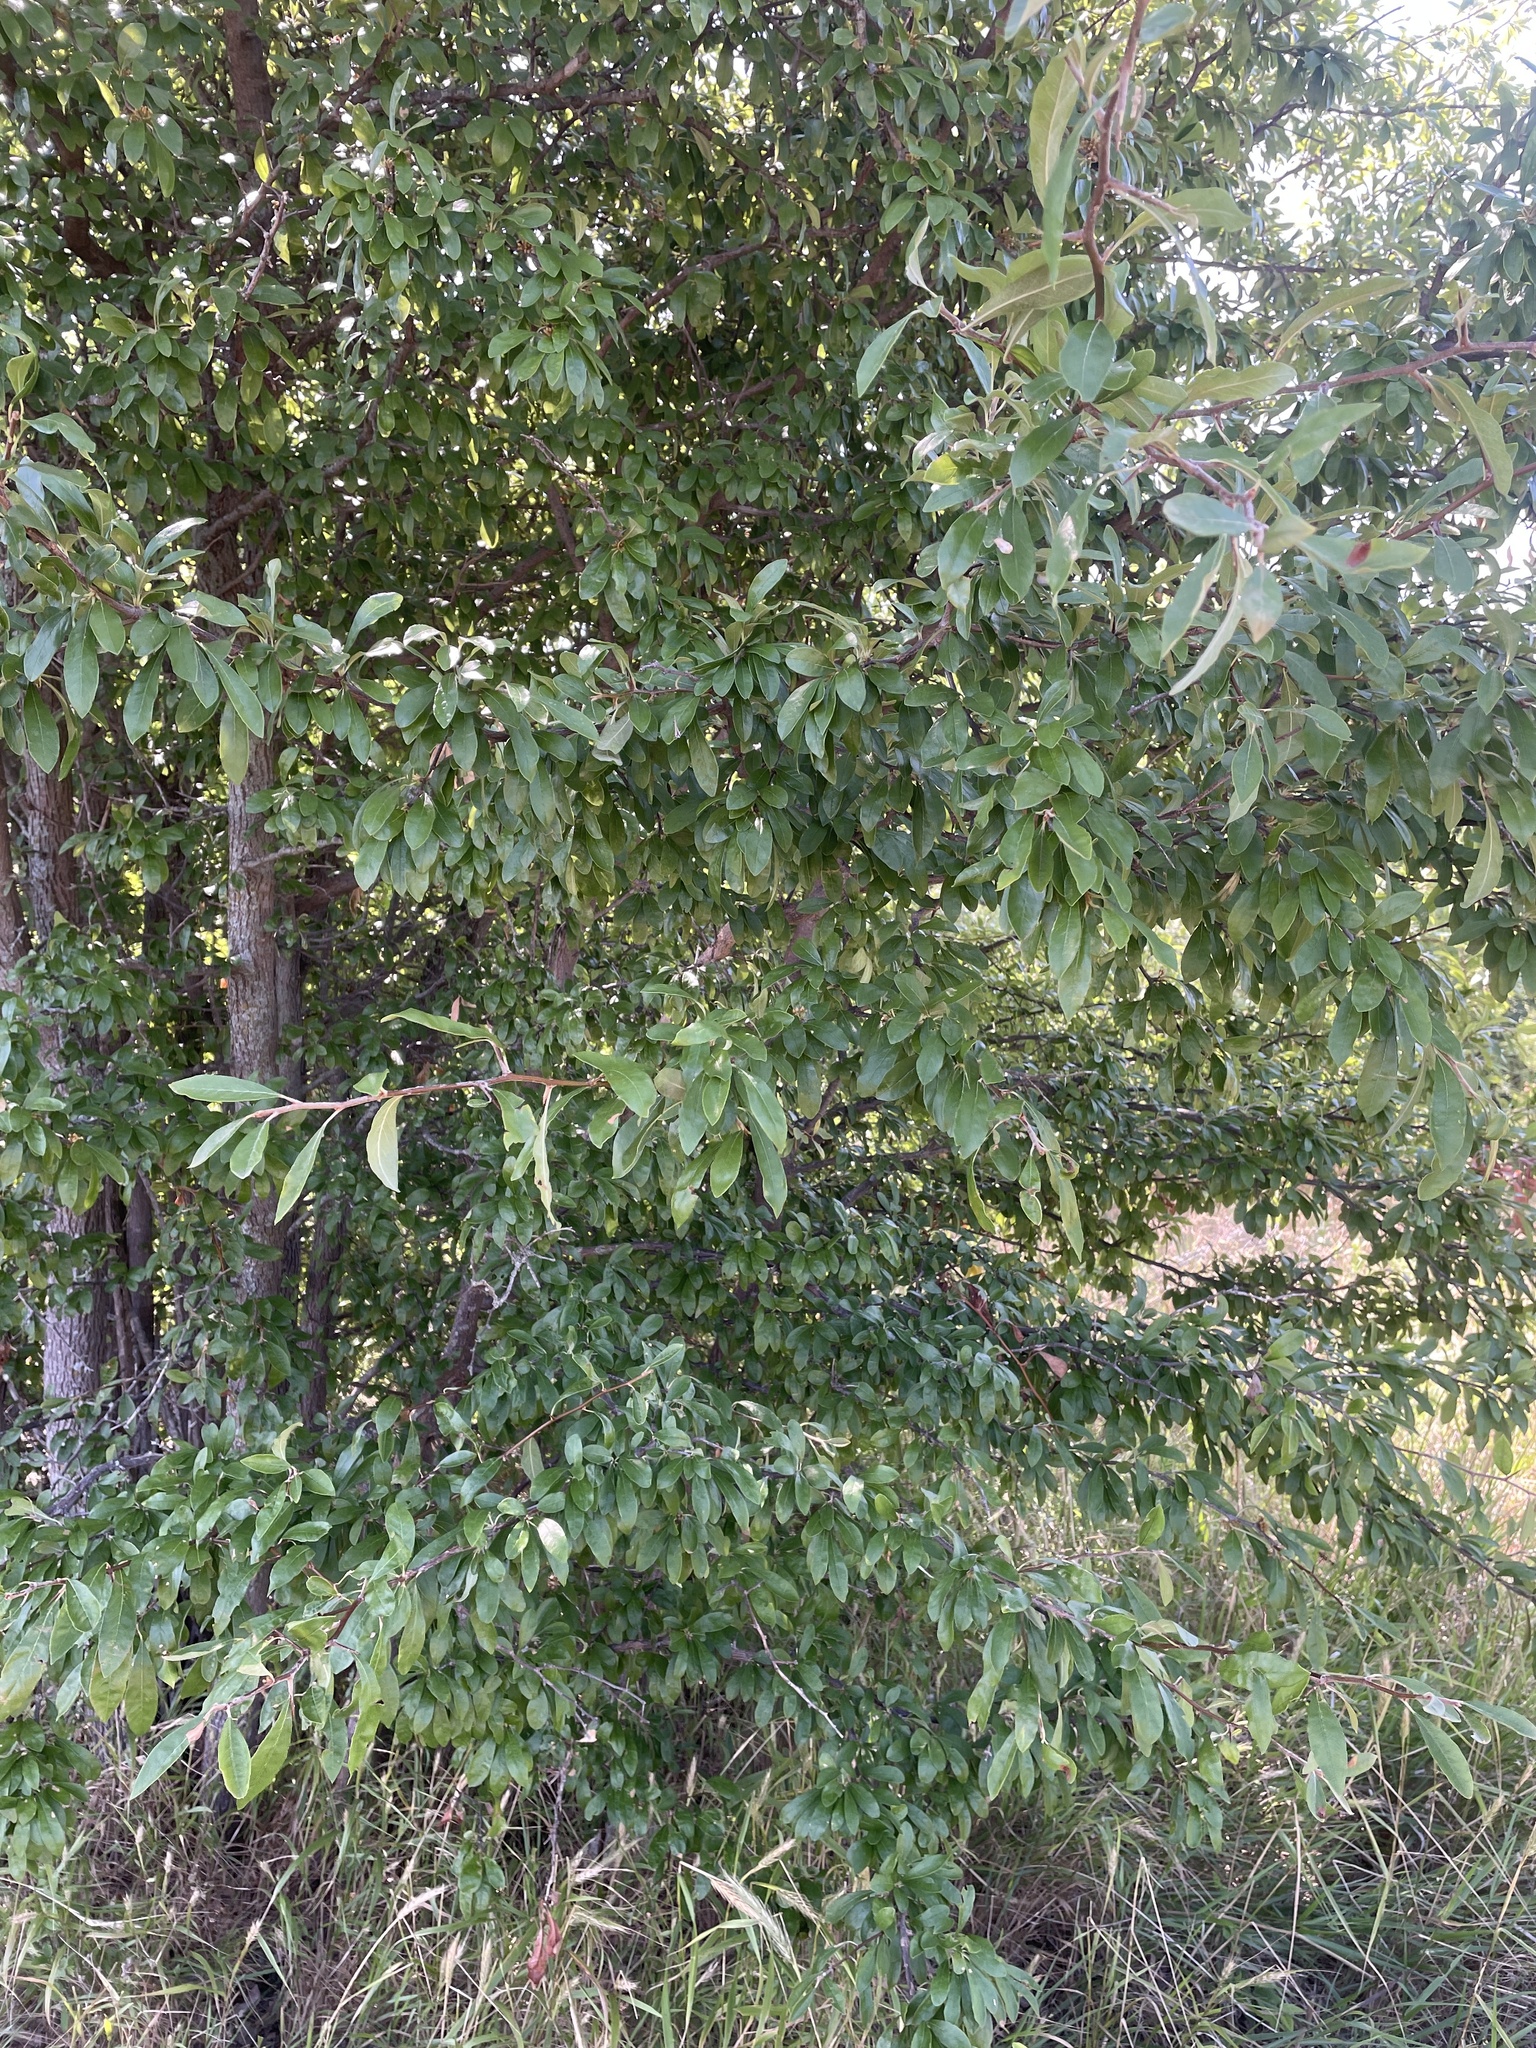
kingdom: Plantae
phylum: Tracheophyta
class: Magnoliopsida
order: Ericales
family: Sapotaceae
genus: Sideroxylon
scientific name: Sideroxylon lanuginosum
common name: Chittamwood
